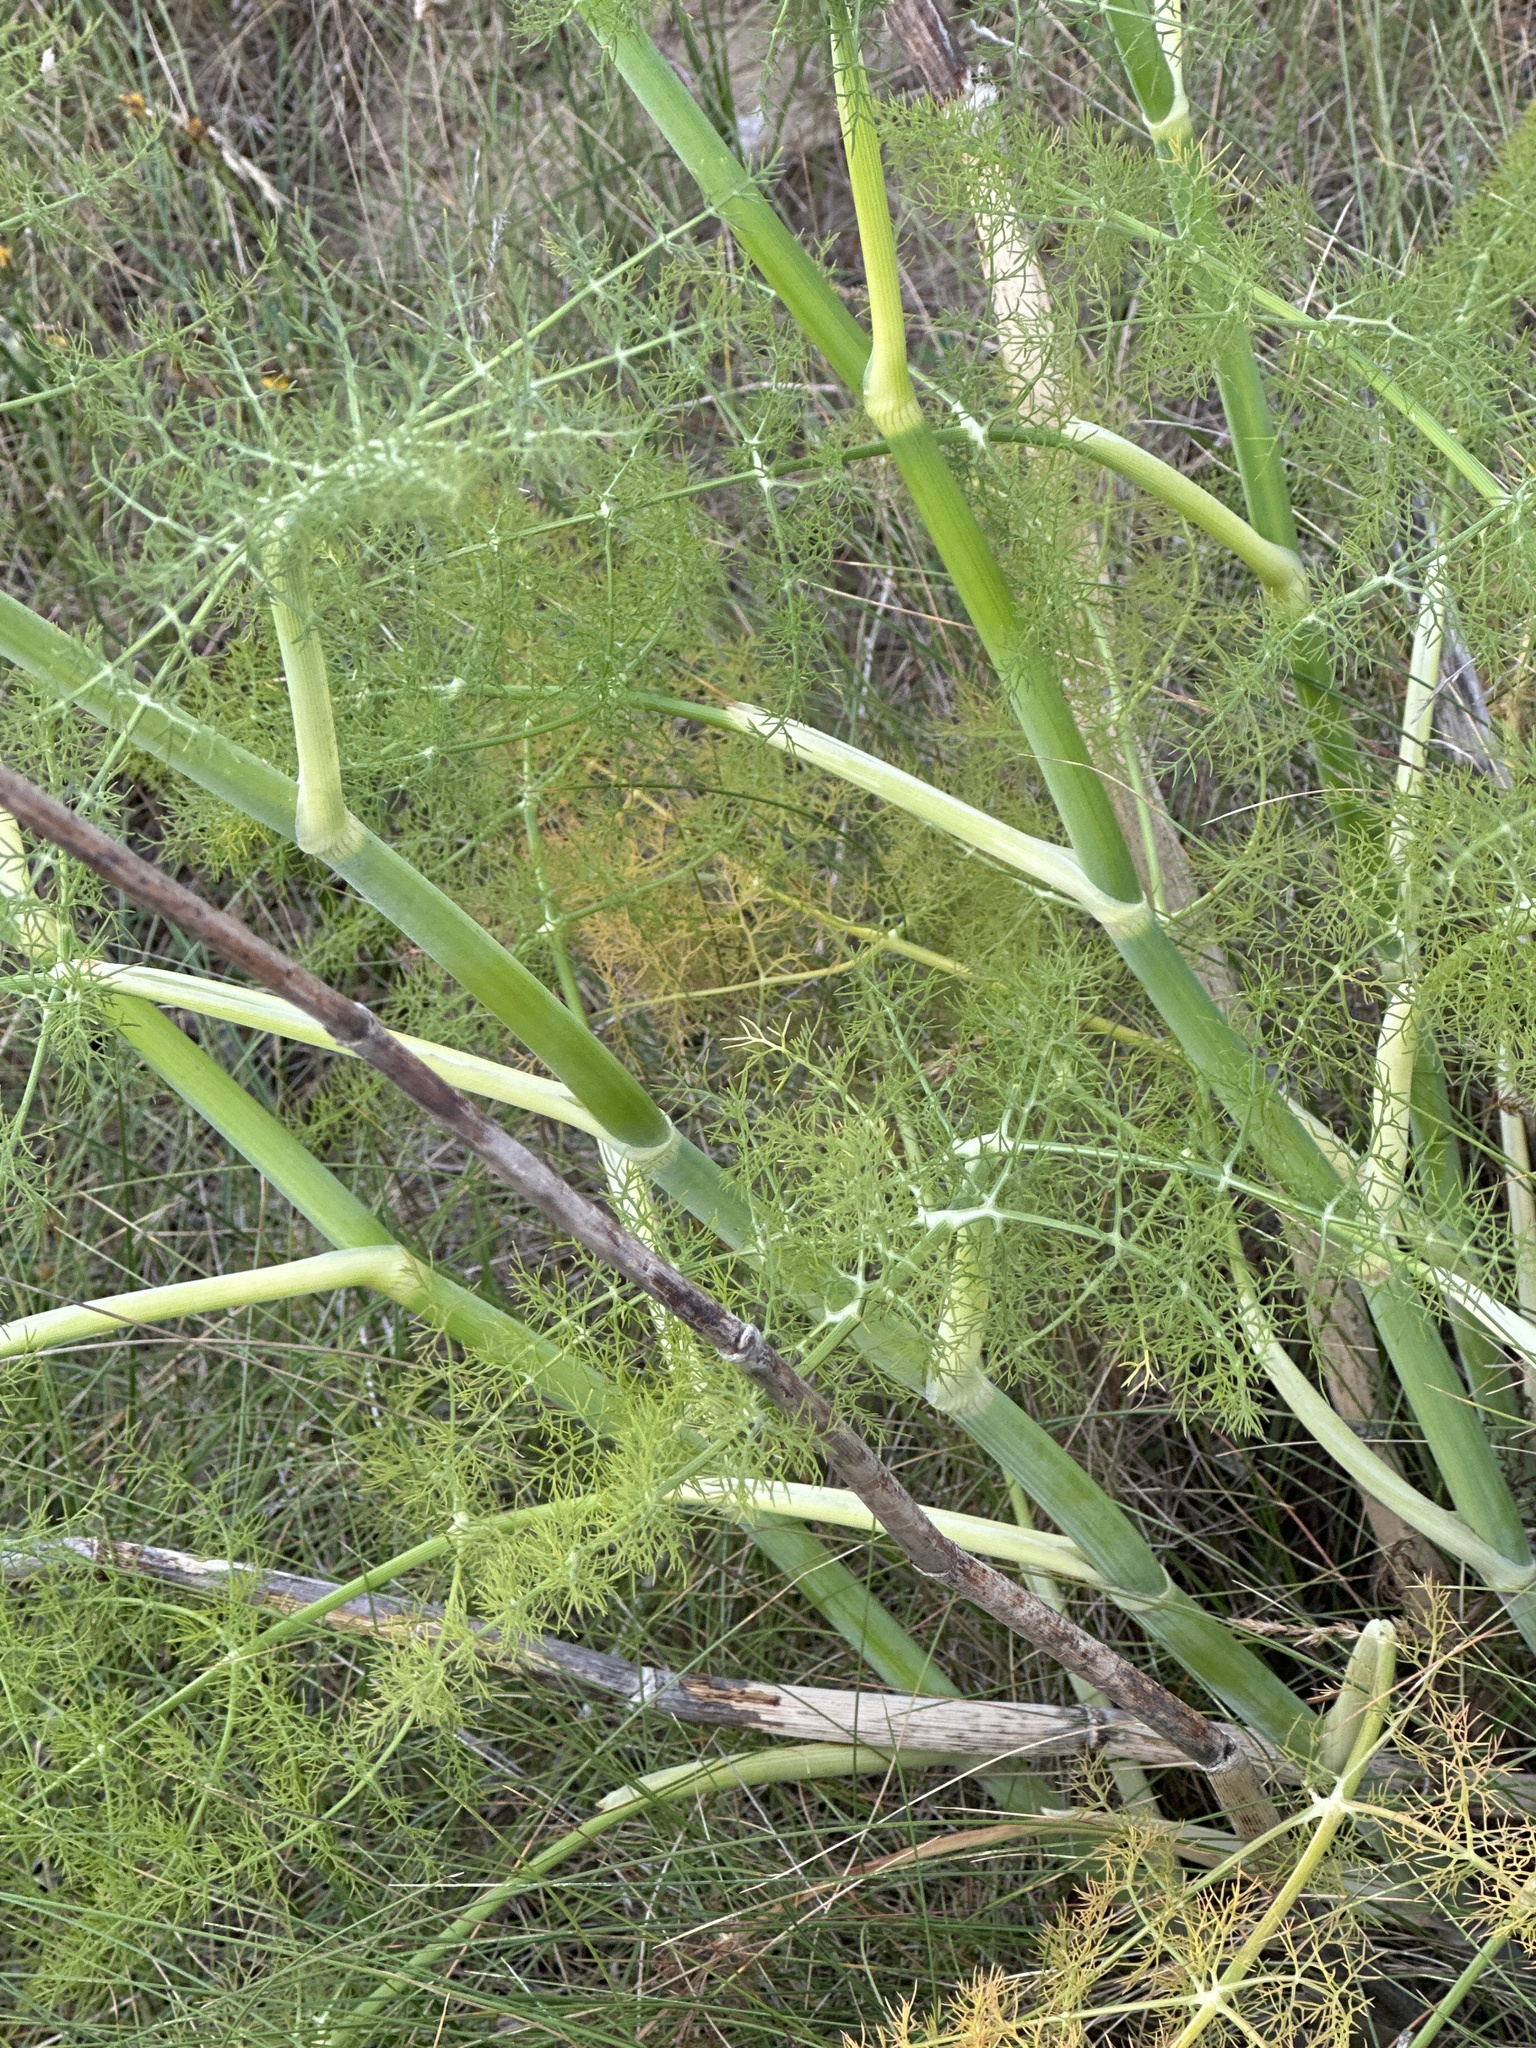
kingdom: Plantae
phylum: Tracheophyta
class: Magnoliopsida
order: Apiales
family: Apiaceae
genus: Foeniculum
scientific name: Foeniculum vulgare
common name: Fennel
